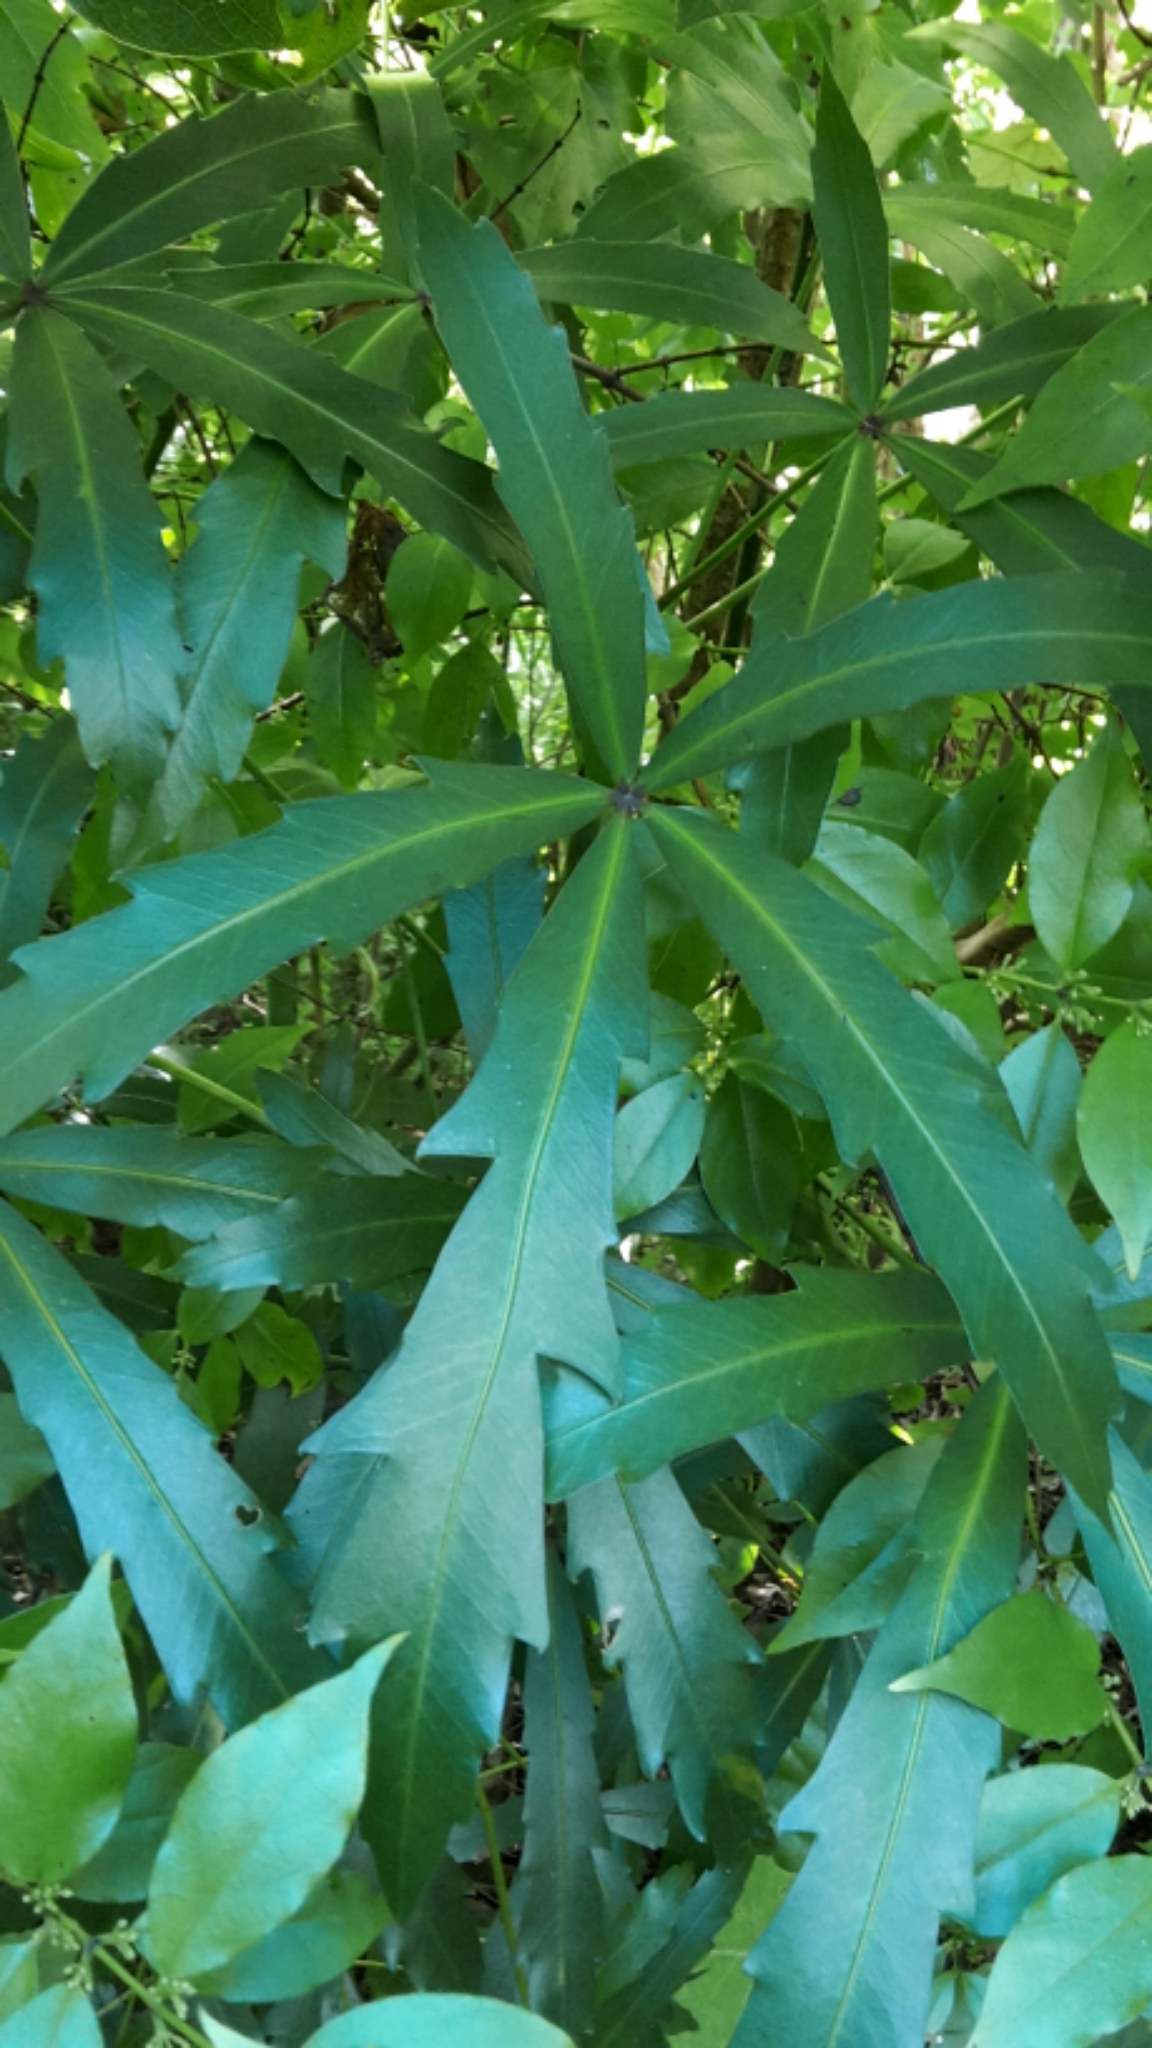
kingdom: Plantae
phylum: Tracheophyta
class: Magnoliopsida
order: Apiales
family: Araliaceae
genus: Pseudopanax
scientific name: Pseudopanax
